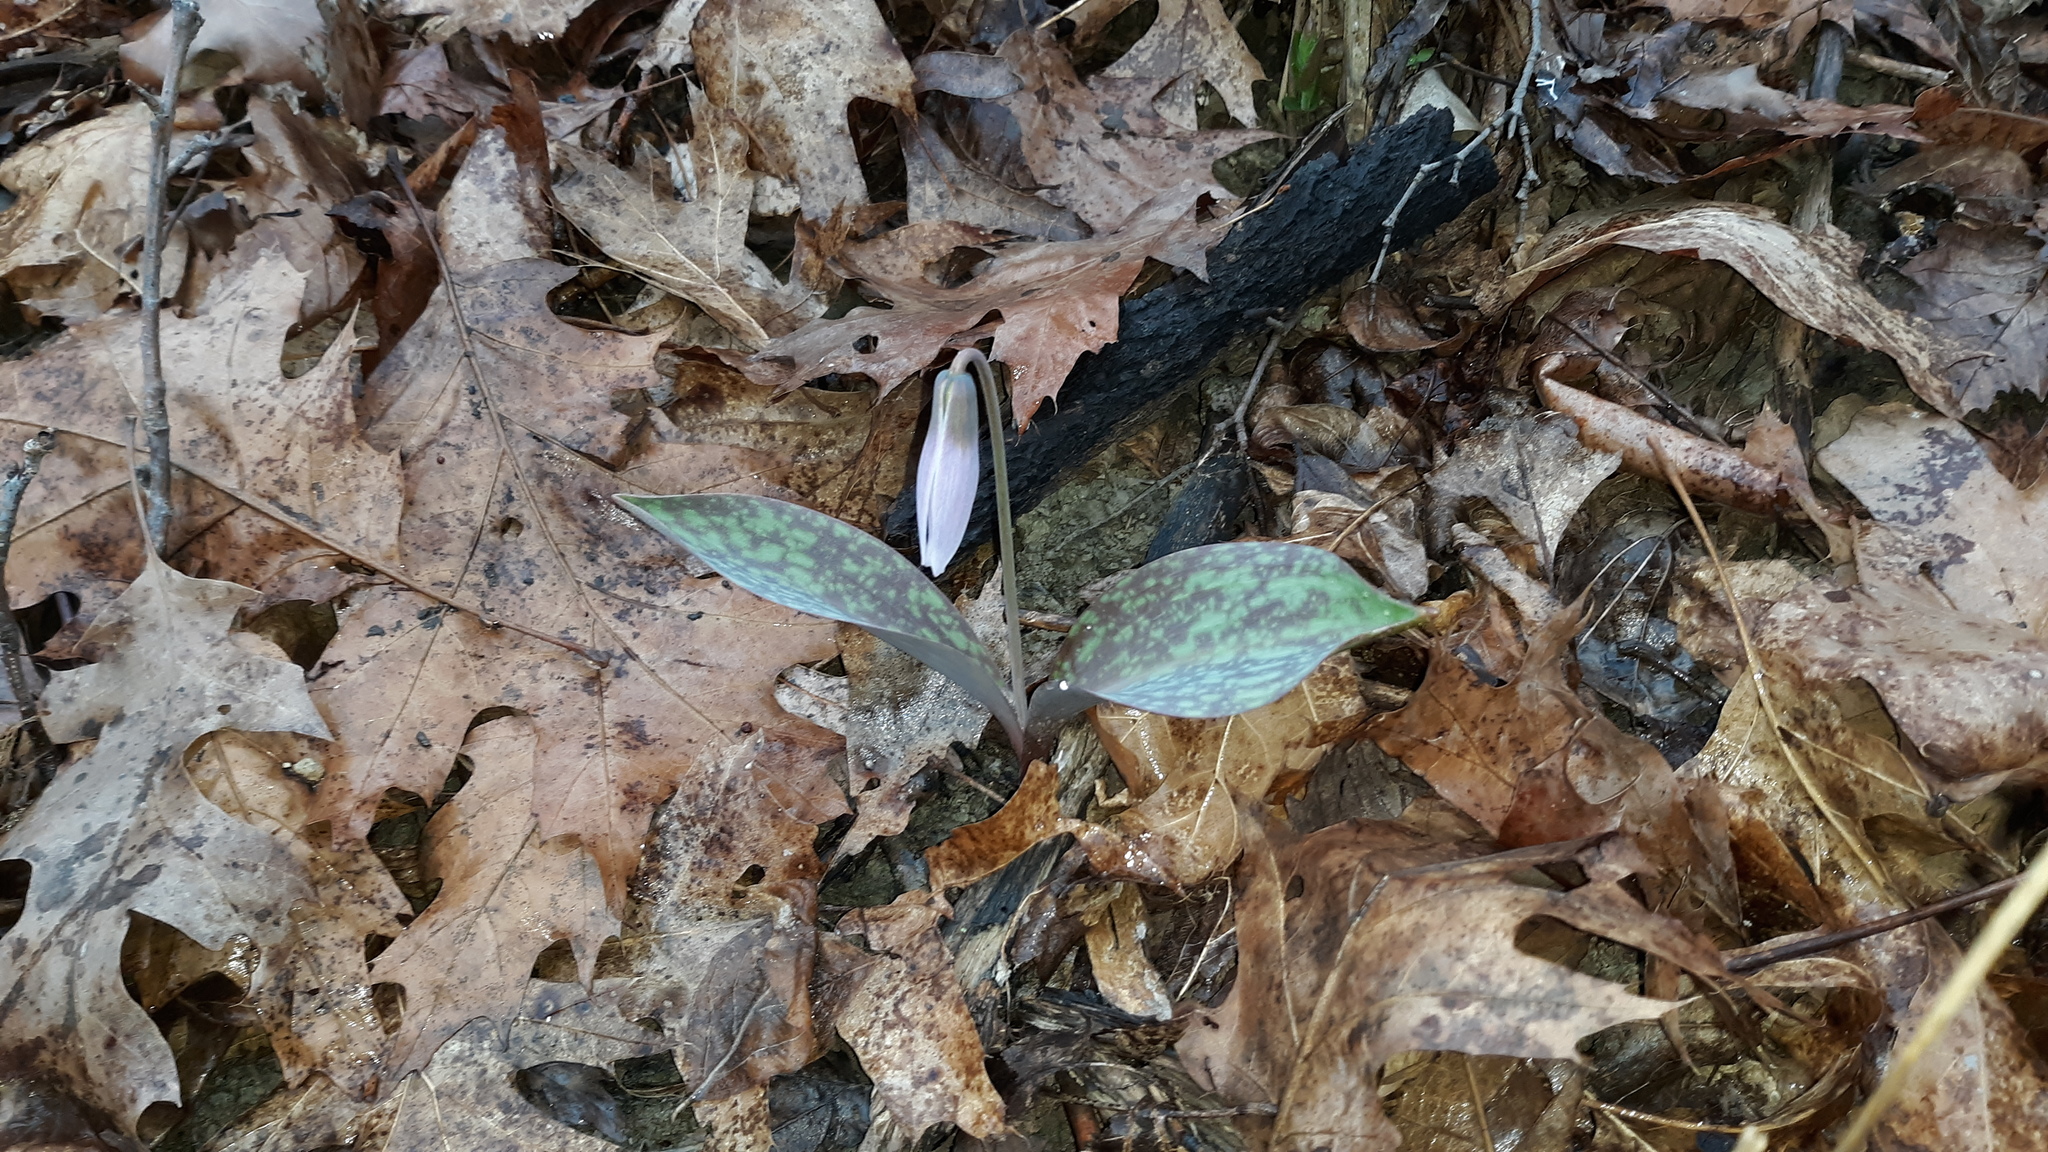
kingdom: Plantae
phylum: Tracheophyta
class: Liliopsida
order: Liliales
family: Liliaceae
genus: Erythronium
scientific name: Erythronium albidum
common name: White trout-lily
